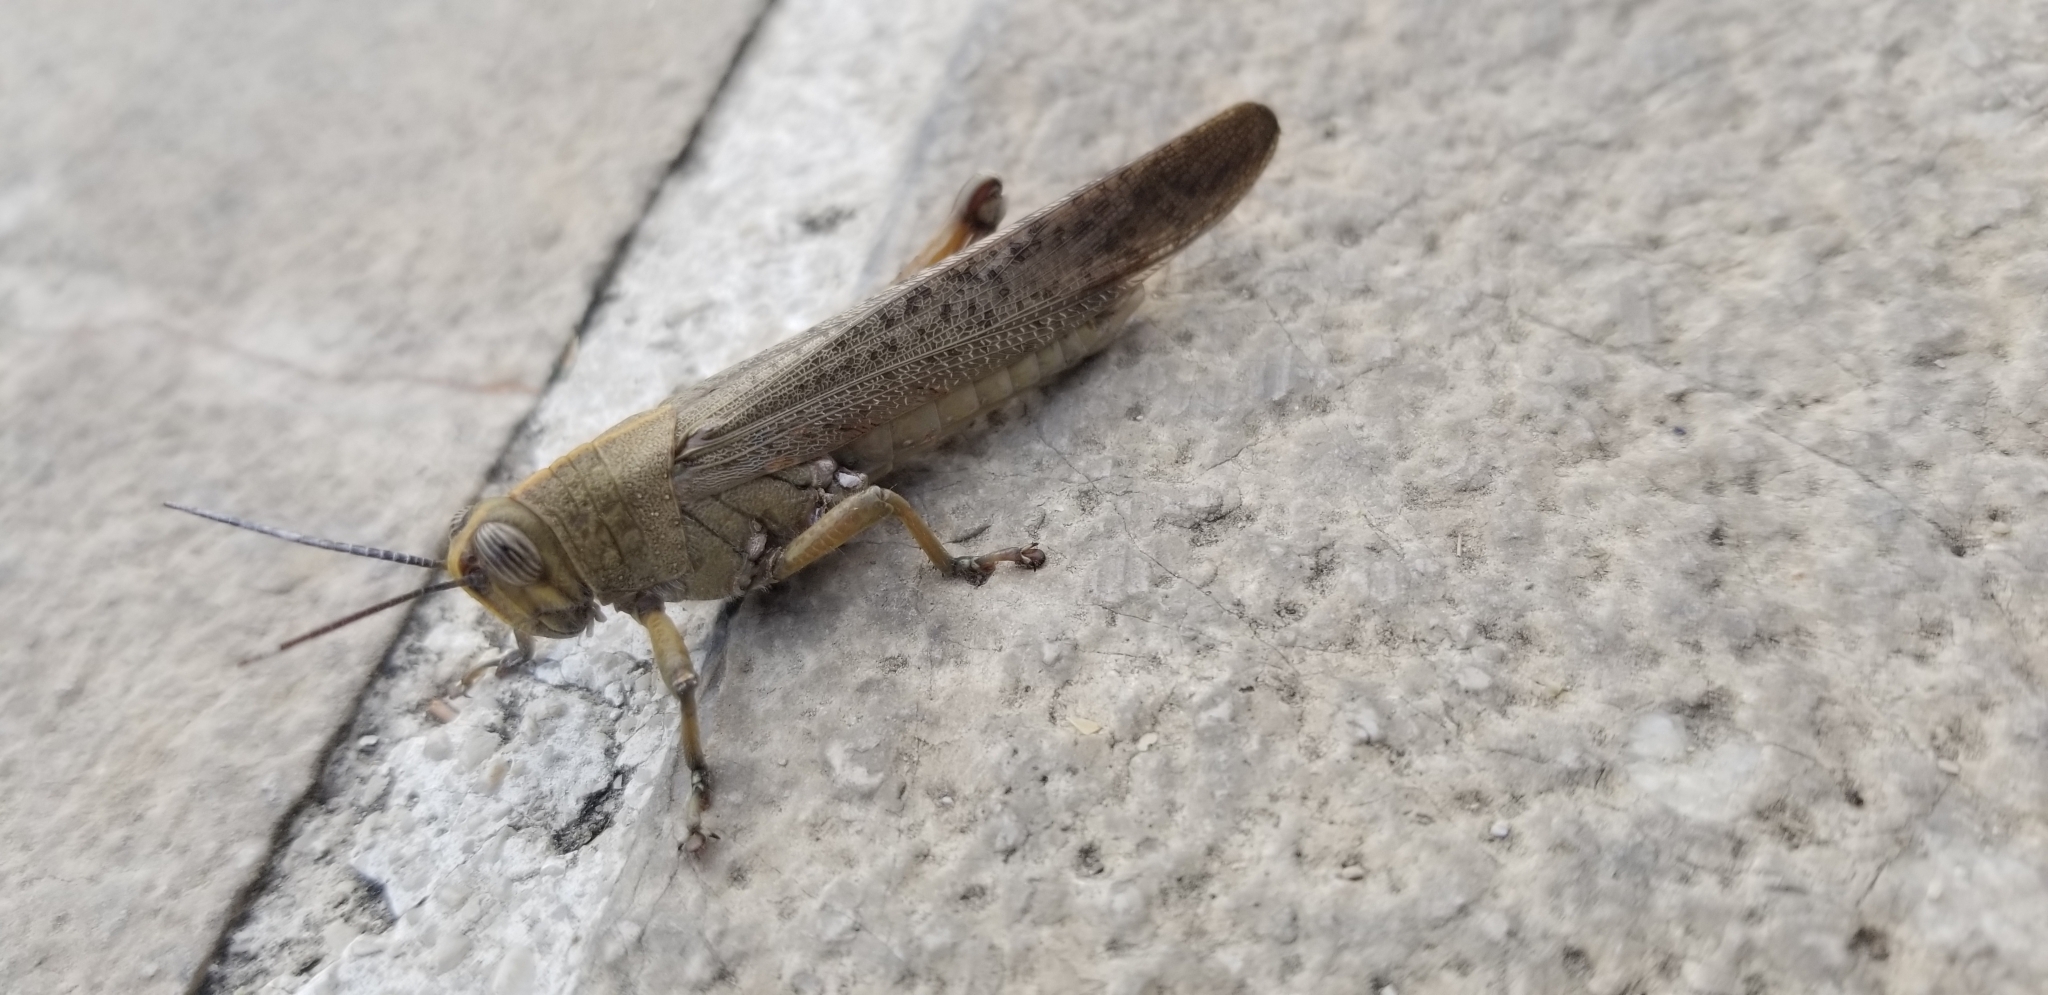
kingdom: Animalia
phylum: Arthropoda
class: Insecta
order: Orthoptera
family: Acrididae
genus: Anacridium
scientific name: Anacridium aegyptium
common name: Egyptian grasshopper
